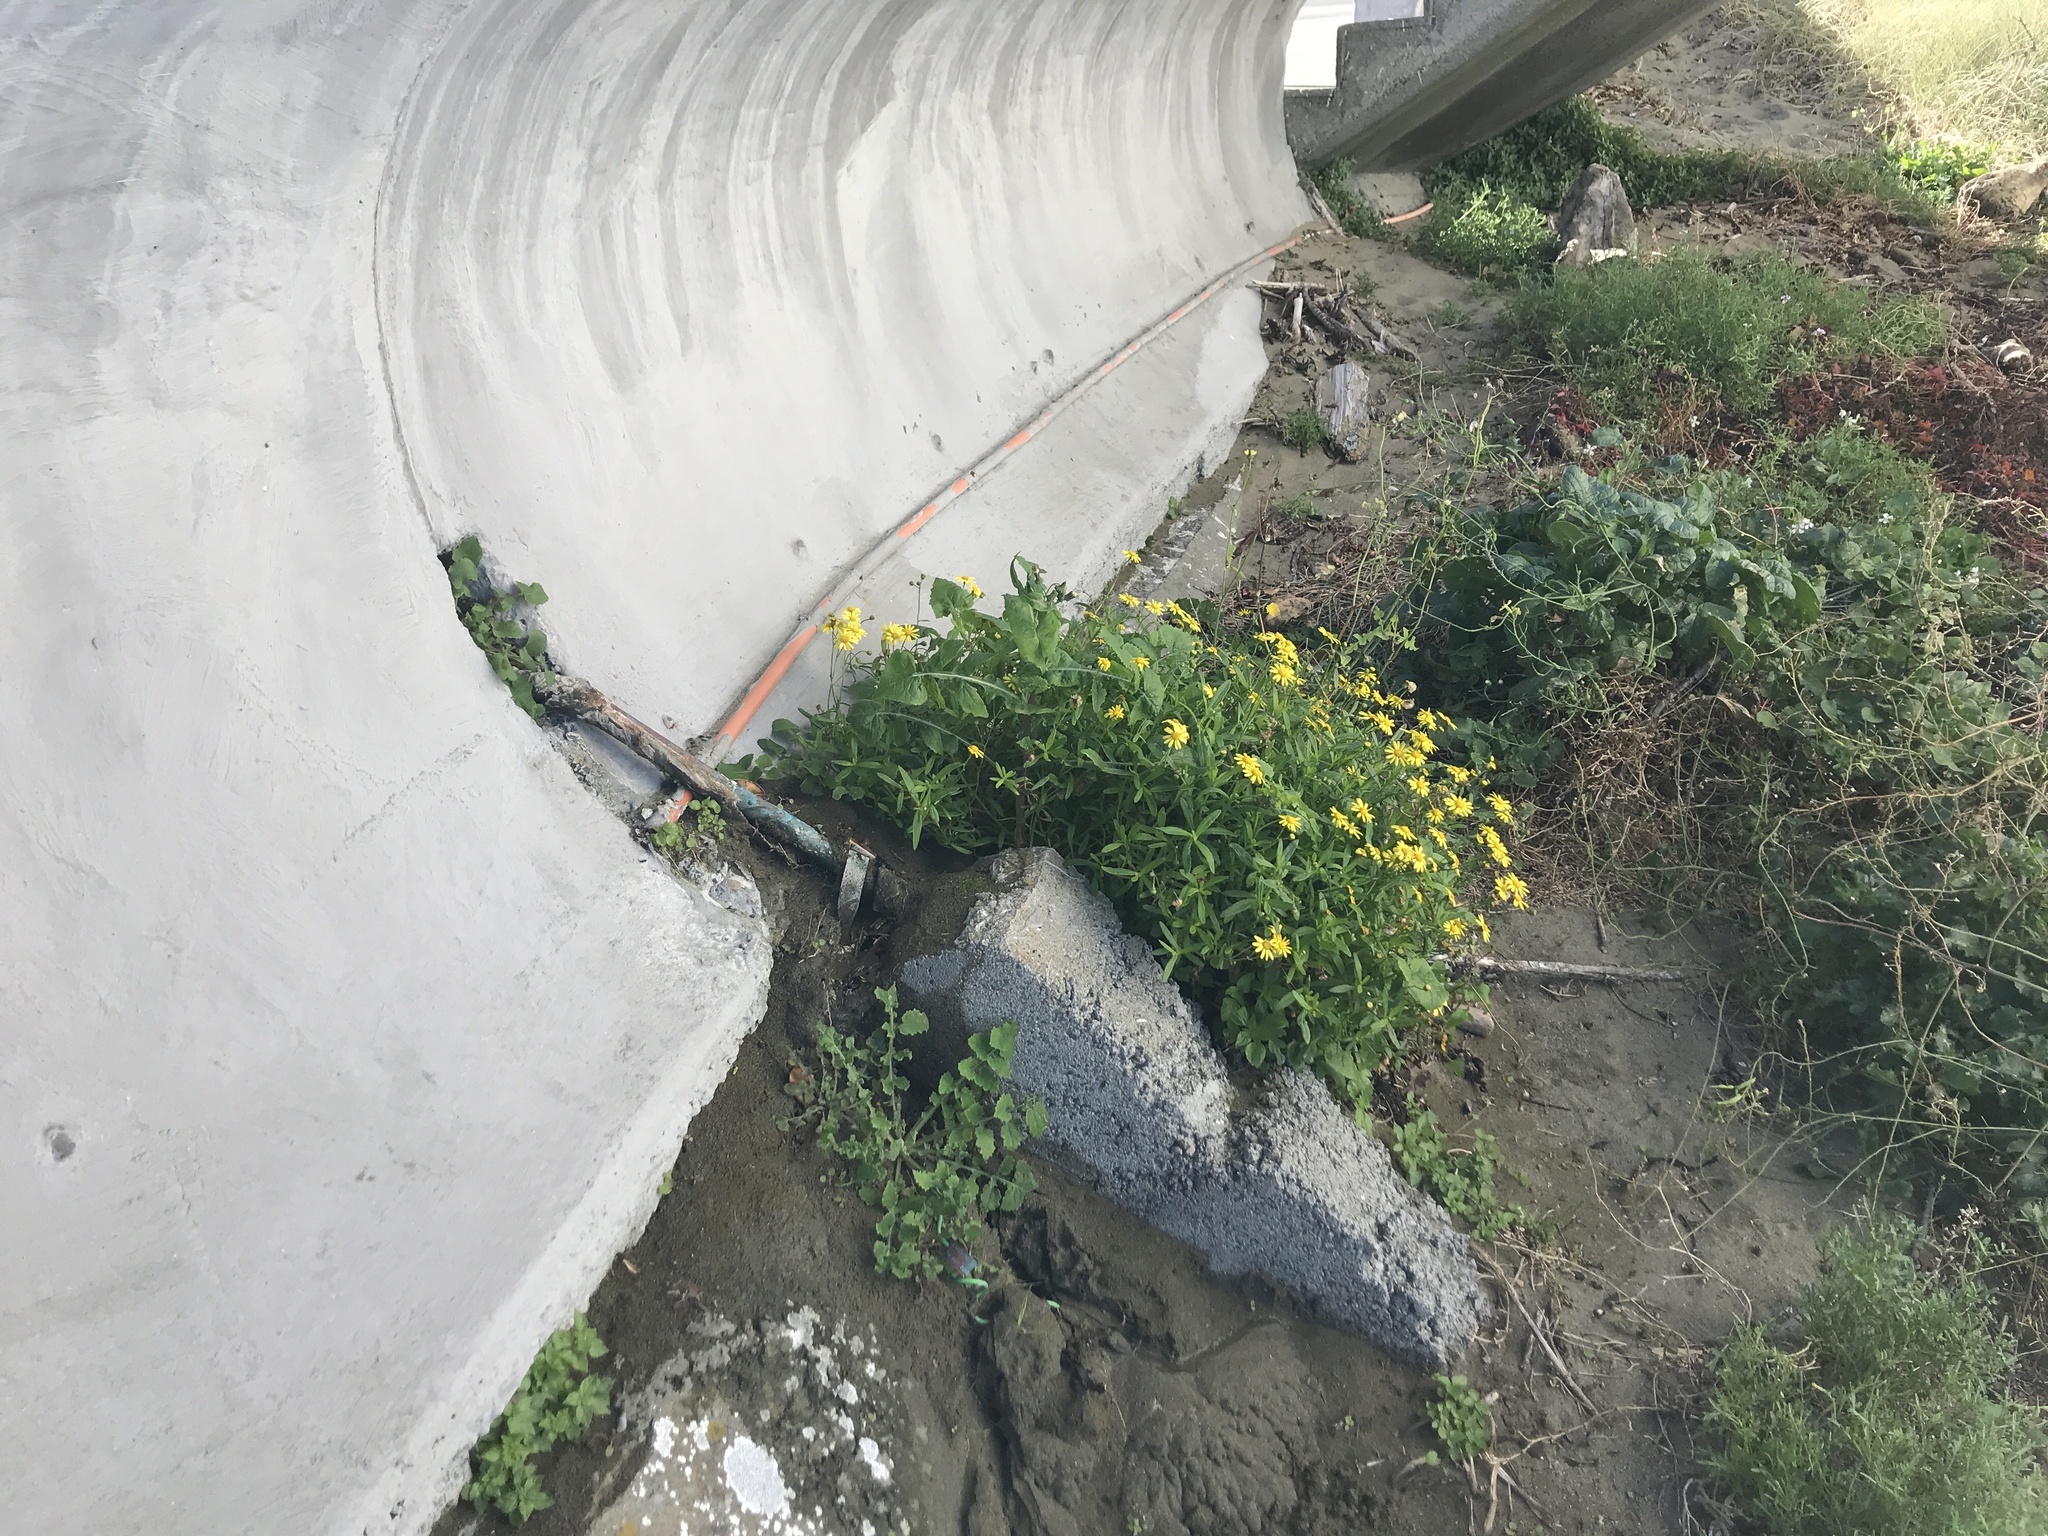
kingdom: Plantae
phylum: Tracheophyta
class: Magnoliopsida
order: Asterales
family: Asteraceae
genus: Senecio
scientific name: Senecio skirrhodon
